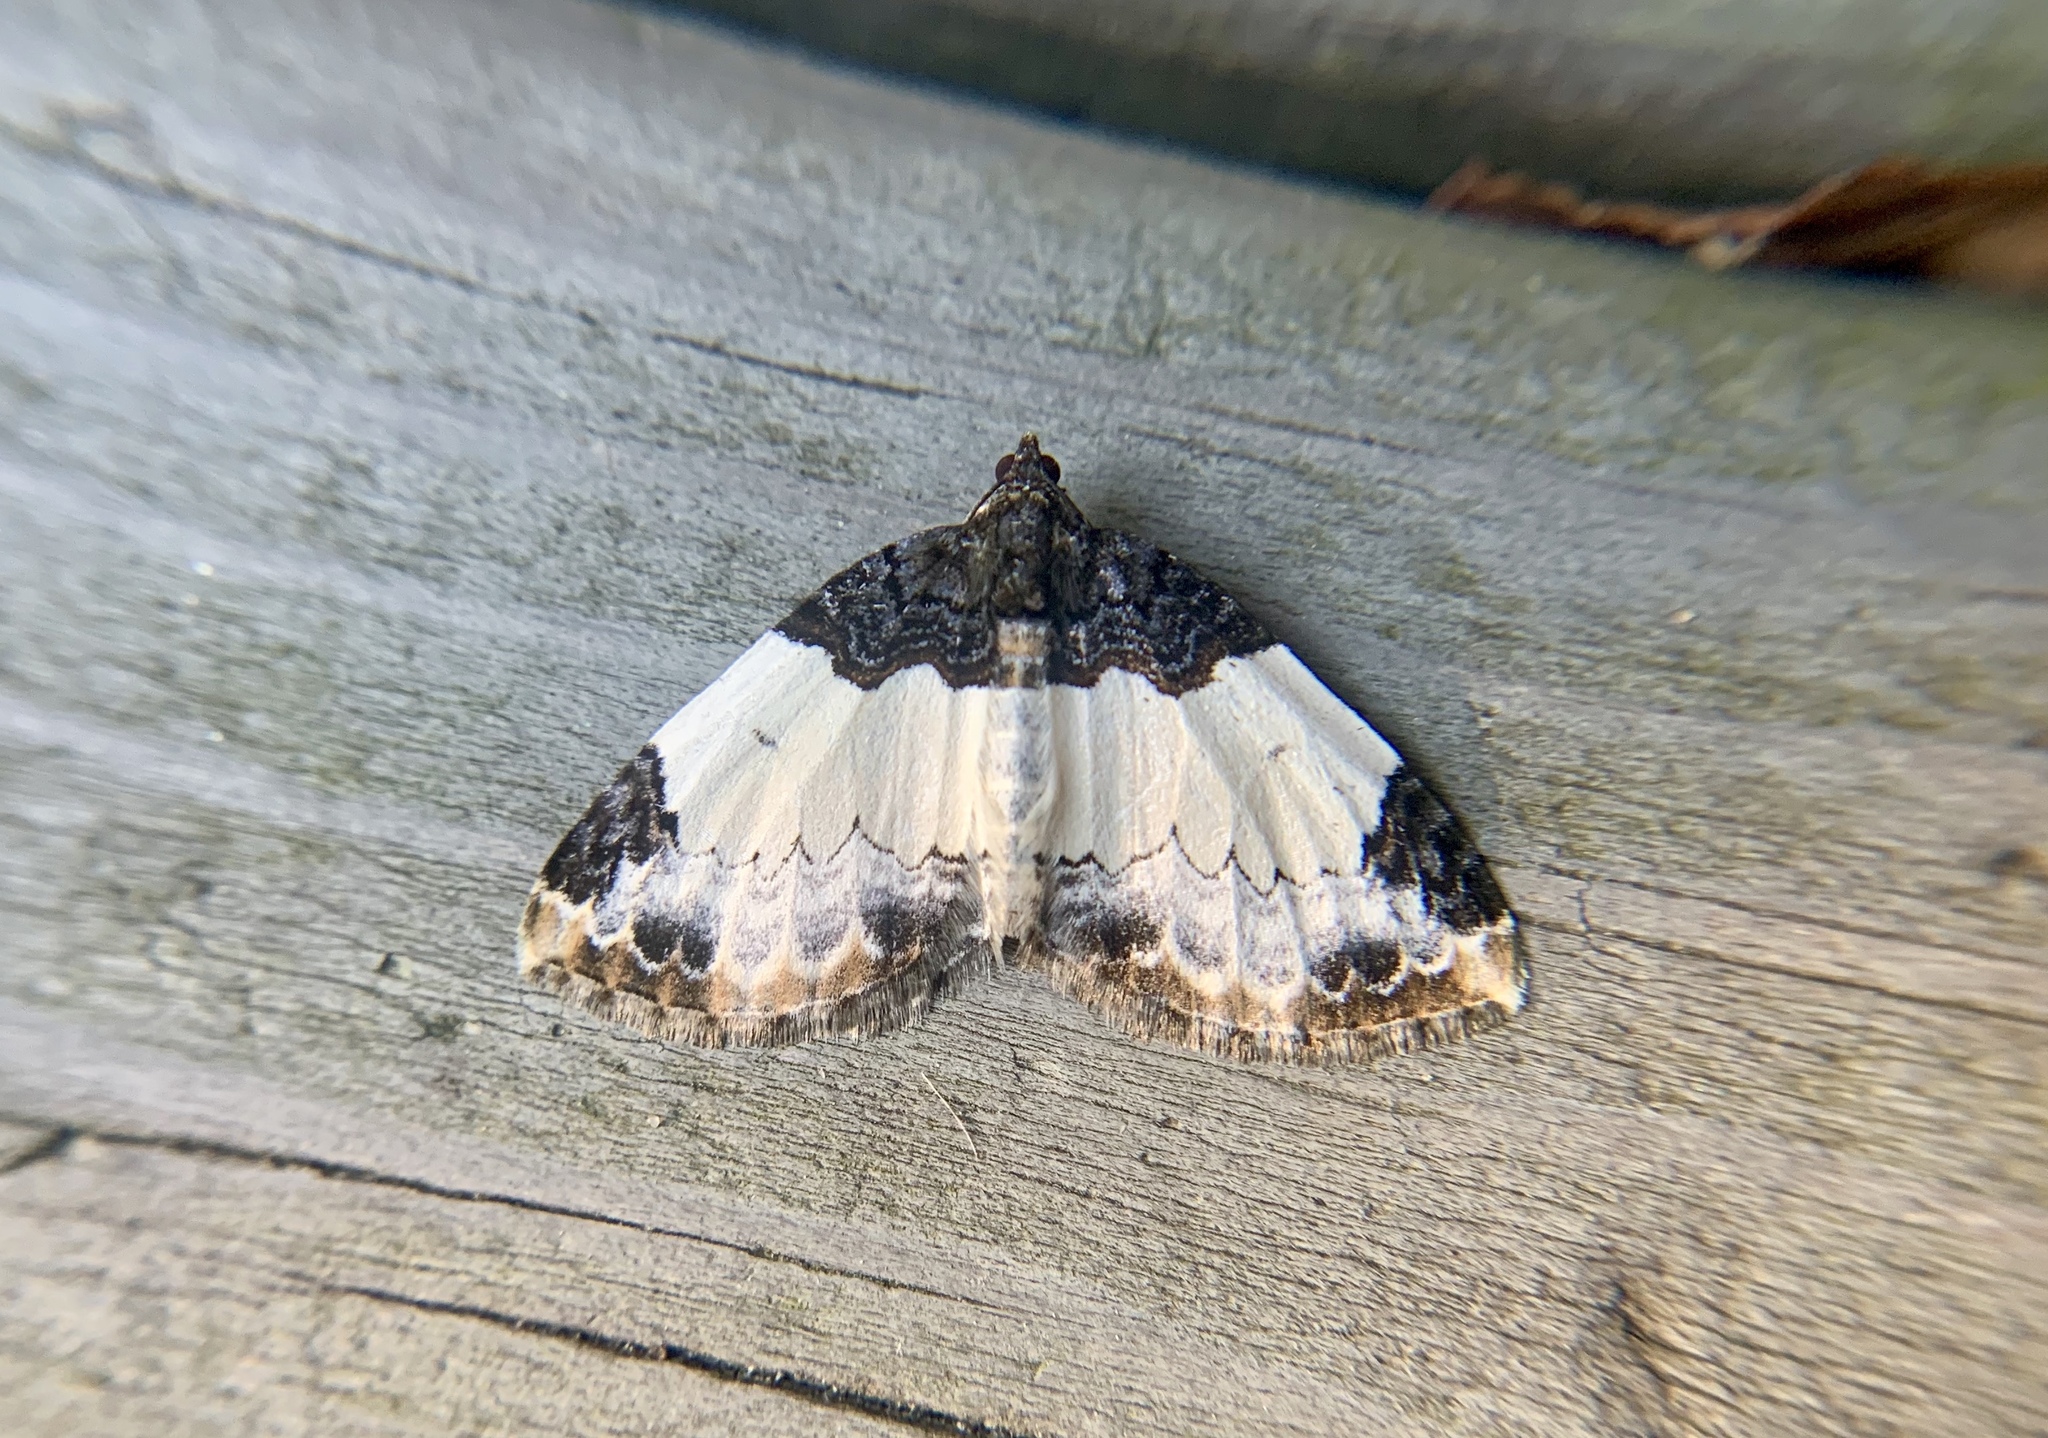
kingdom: Animalia
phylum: Arthropoda
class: Insecta
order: Lepidoptera
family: Geometridae
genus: Mesoleuca
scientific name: Mesoleuca ruficillata
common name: White-ribboned carpet moth
